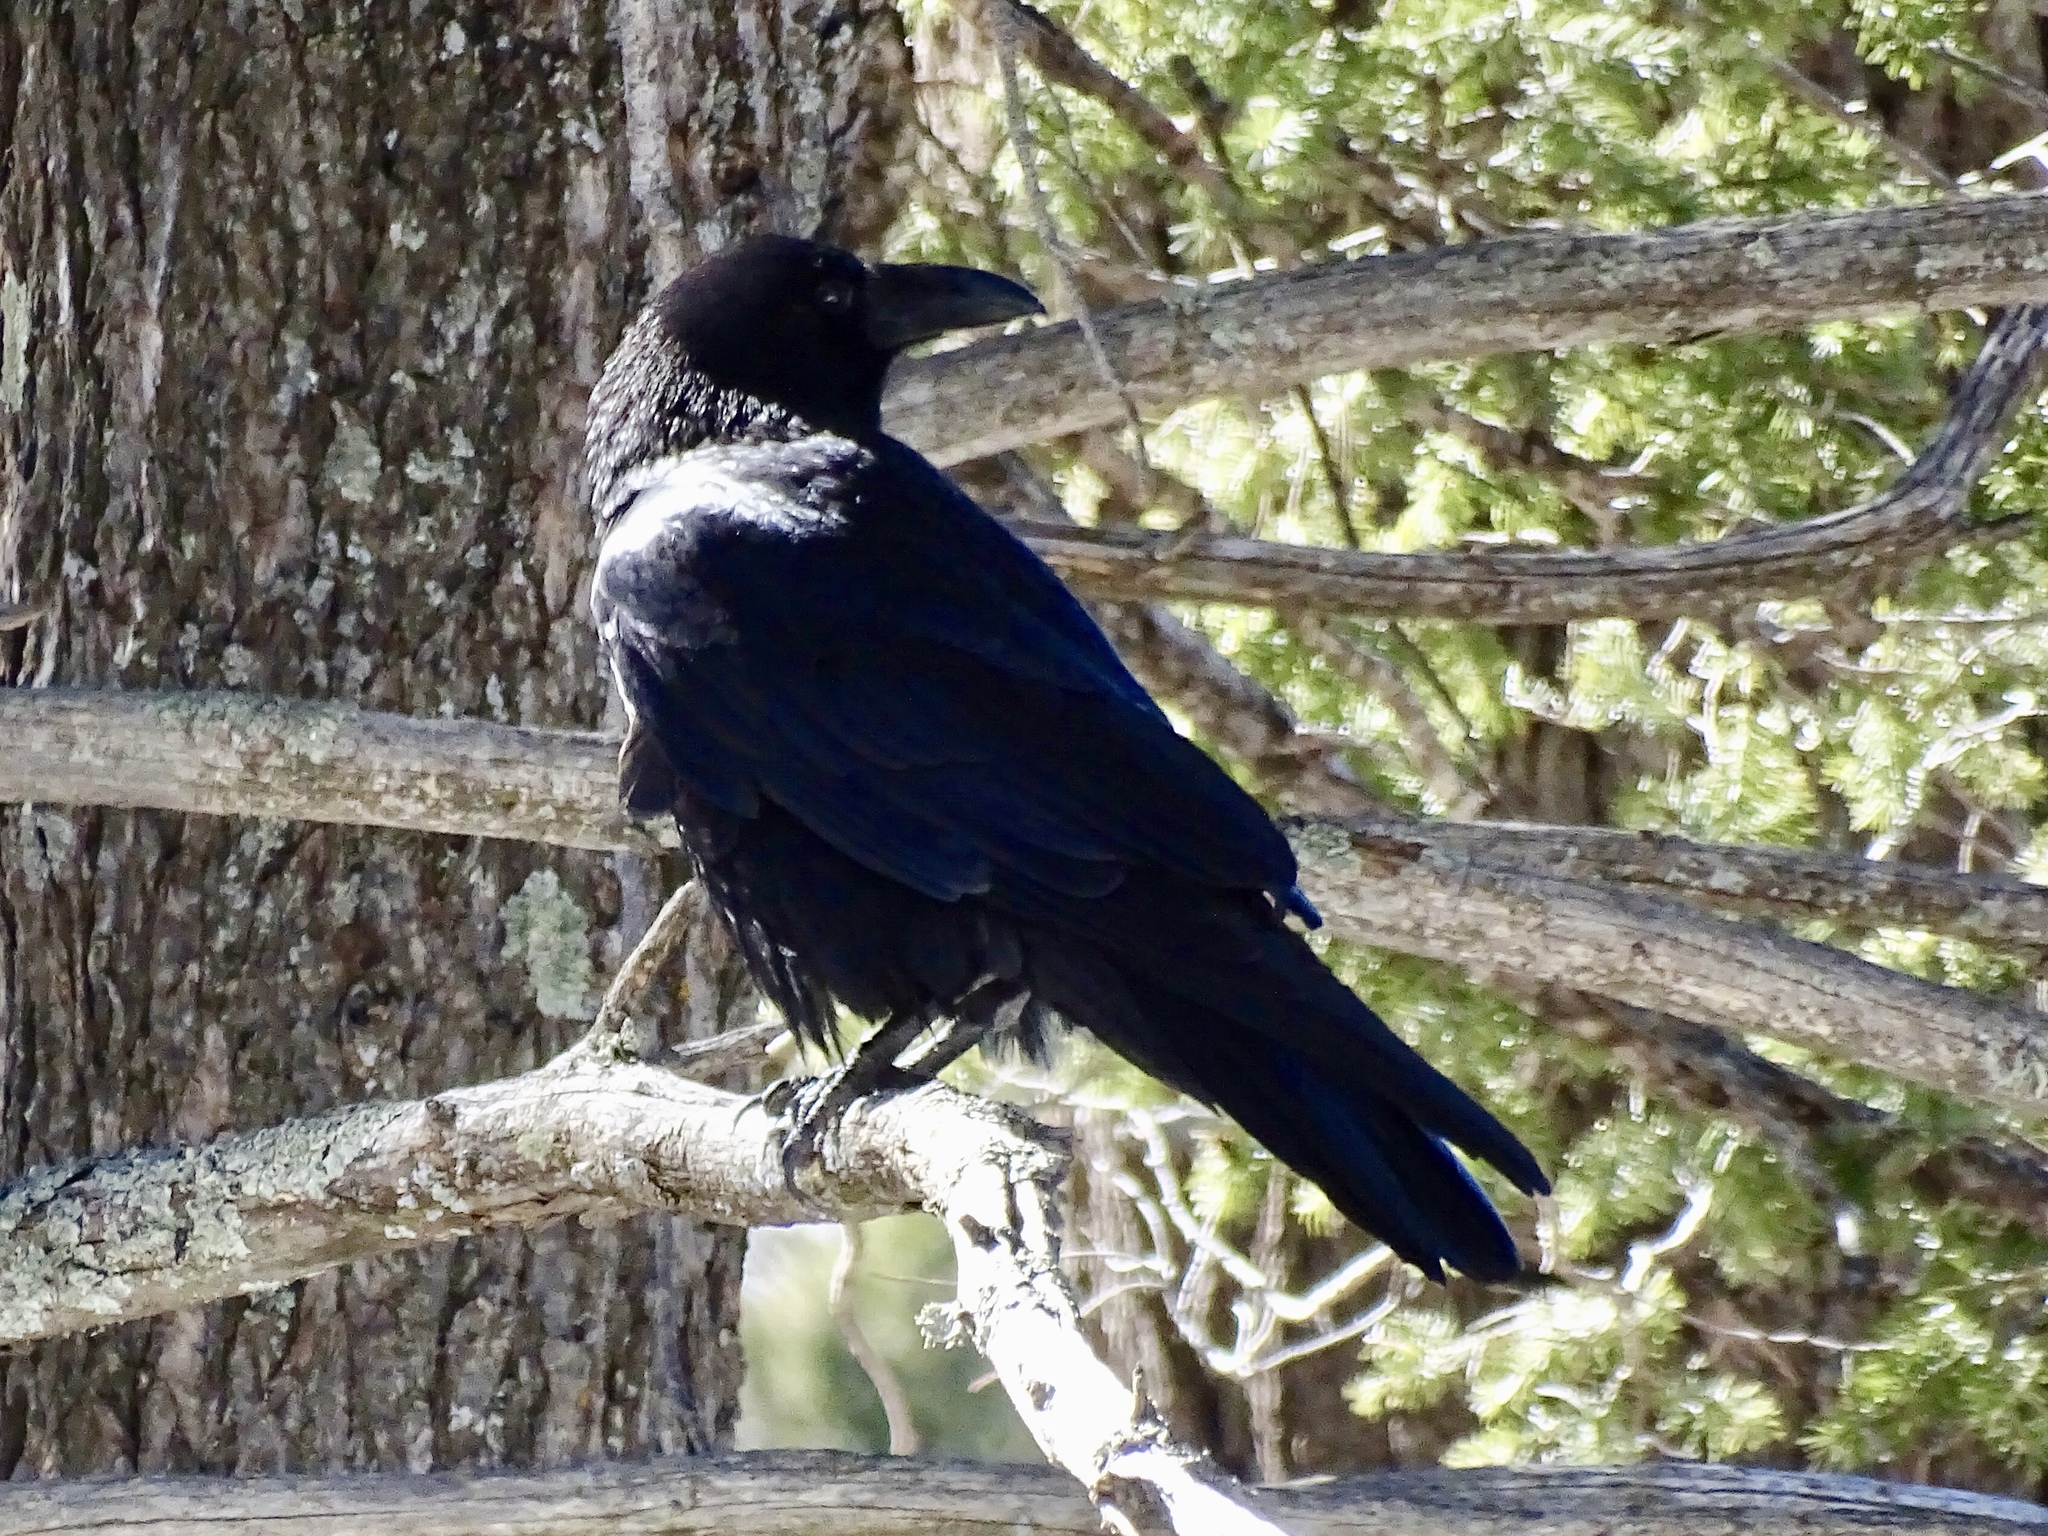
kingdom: Animalia
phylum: Chordata
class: Aves
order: Passeriformes
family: Corvidae
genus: Corvus
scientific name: Corvus corax
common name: Common raven
